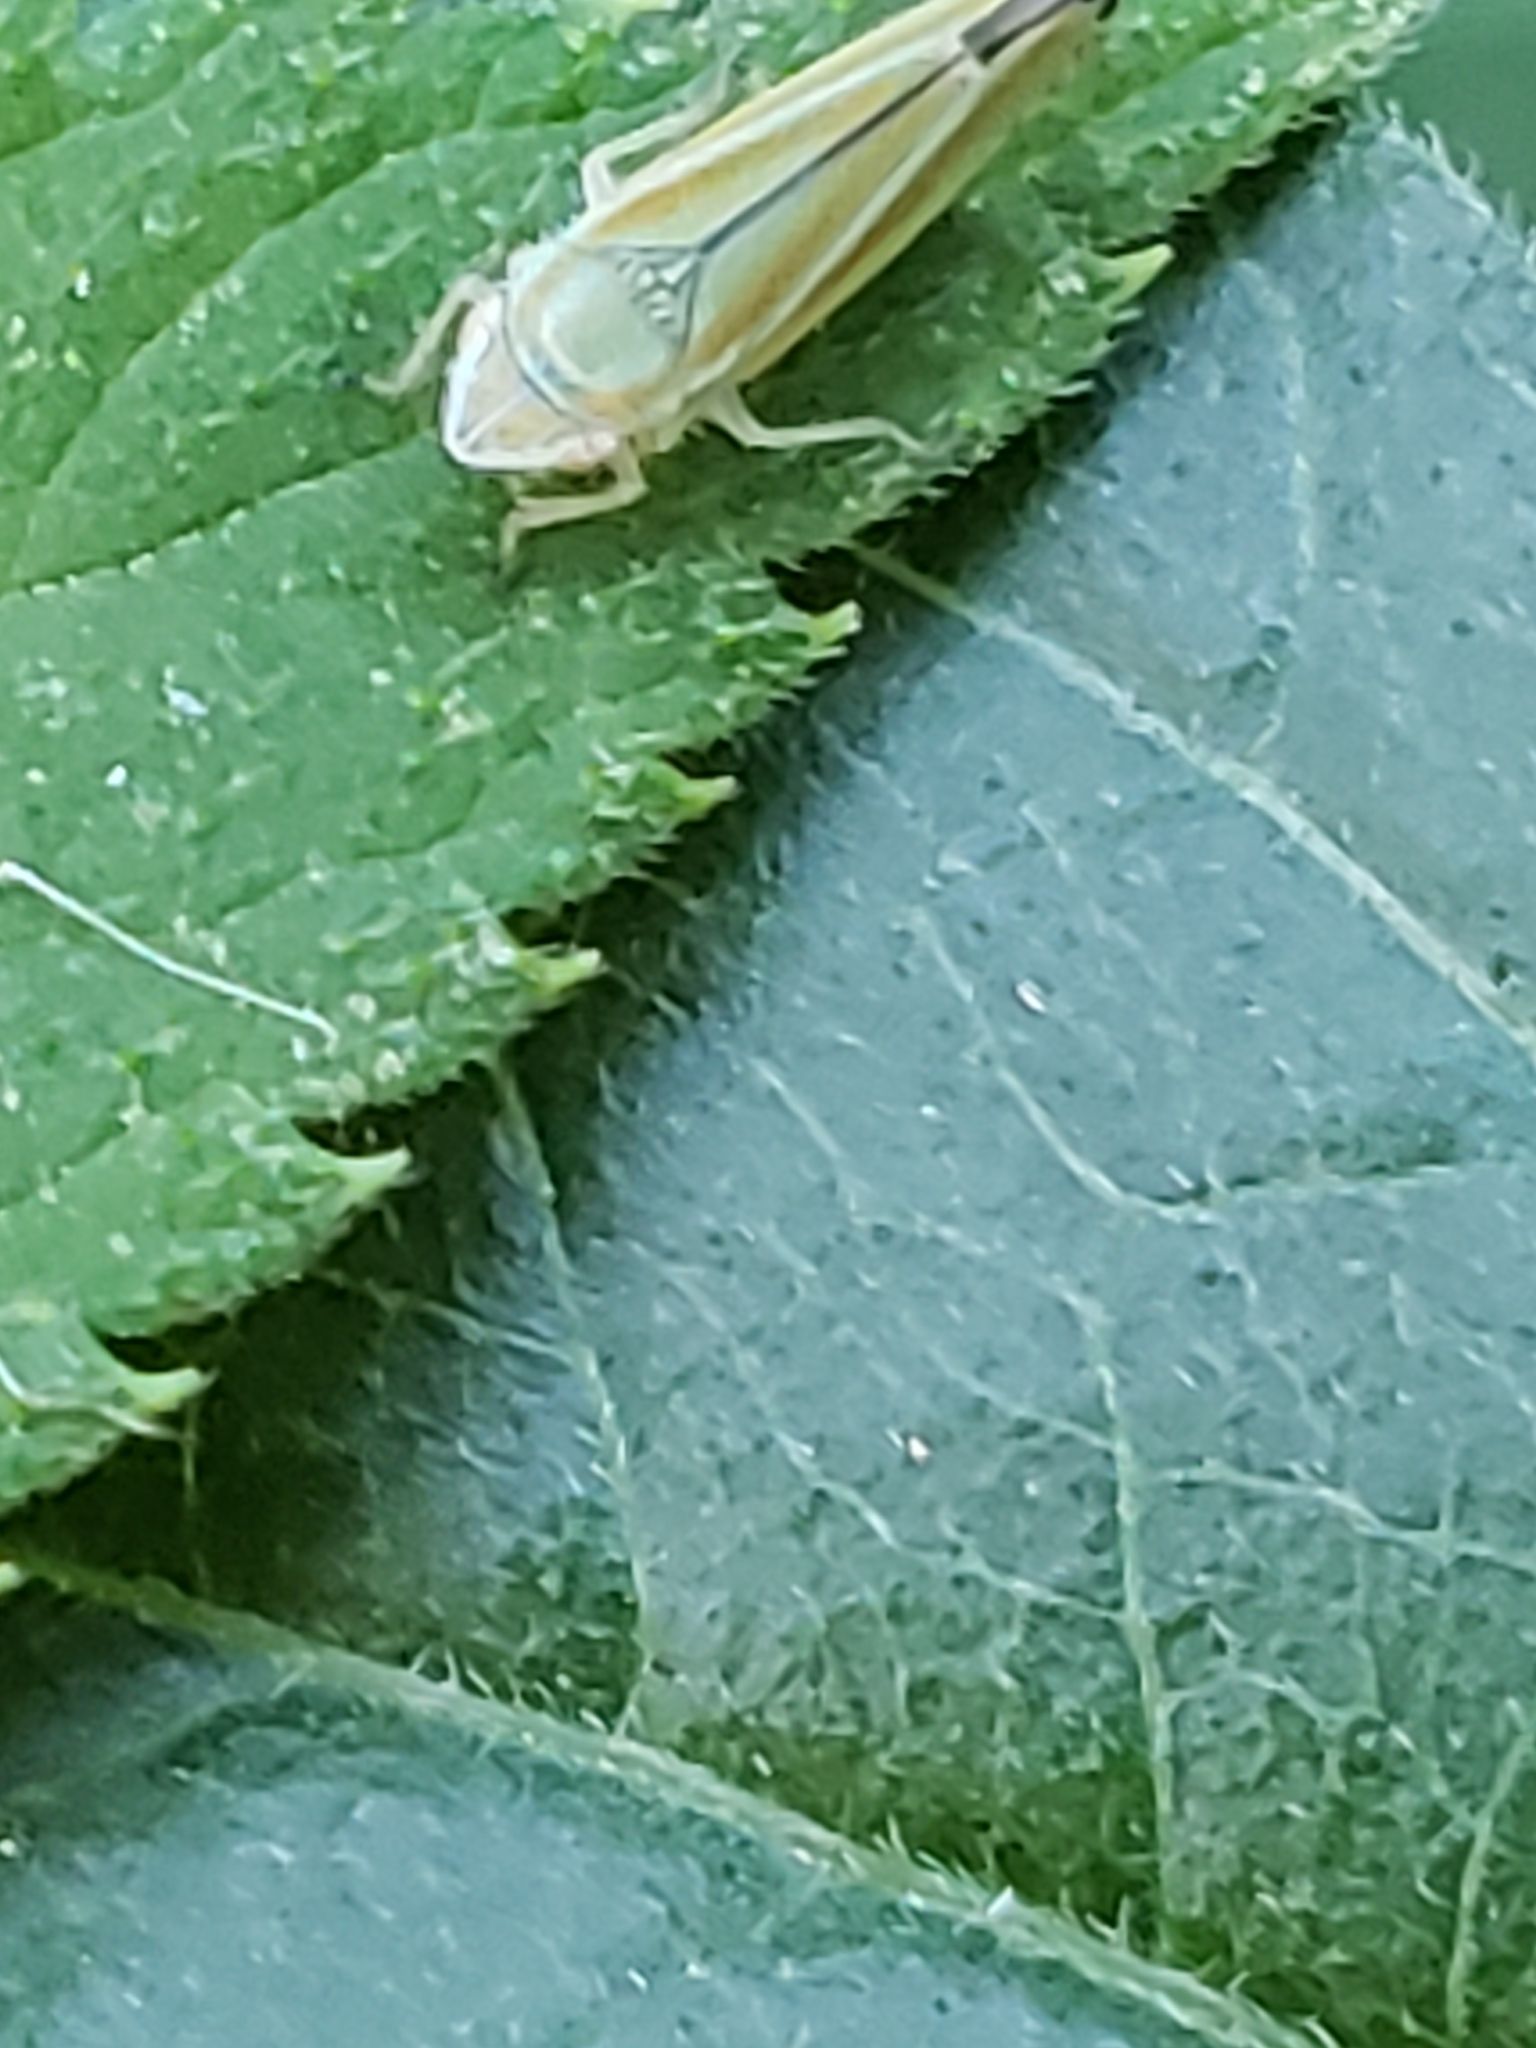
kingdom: Animalia
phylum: Arthropoda
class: Insecta
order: Hemiptera
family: Cicadellidae
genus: Graphocephala
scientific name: Graphocephala versuta
